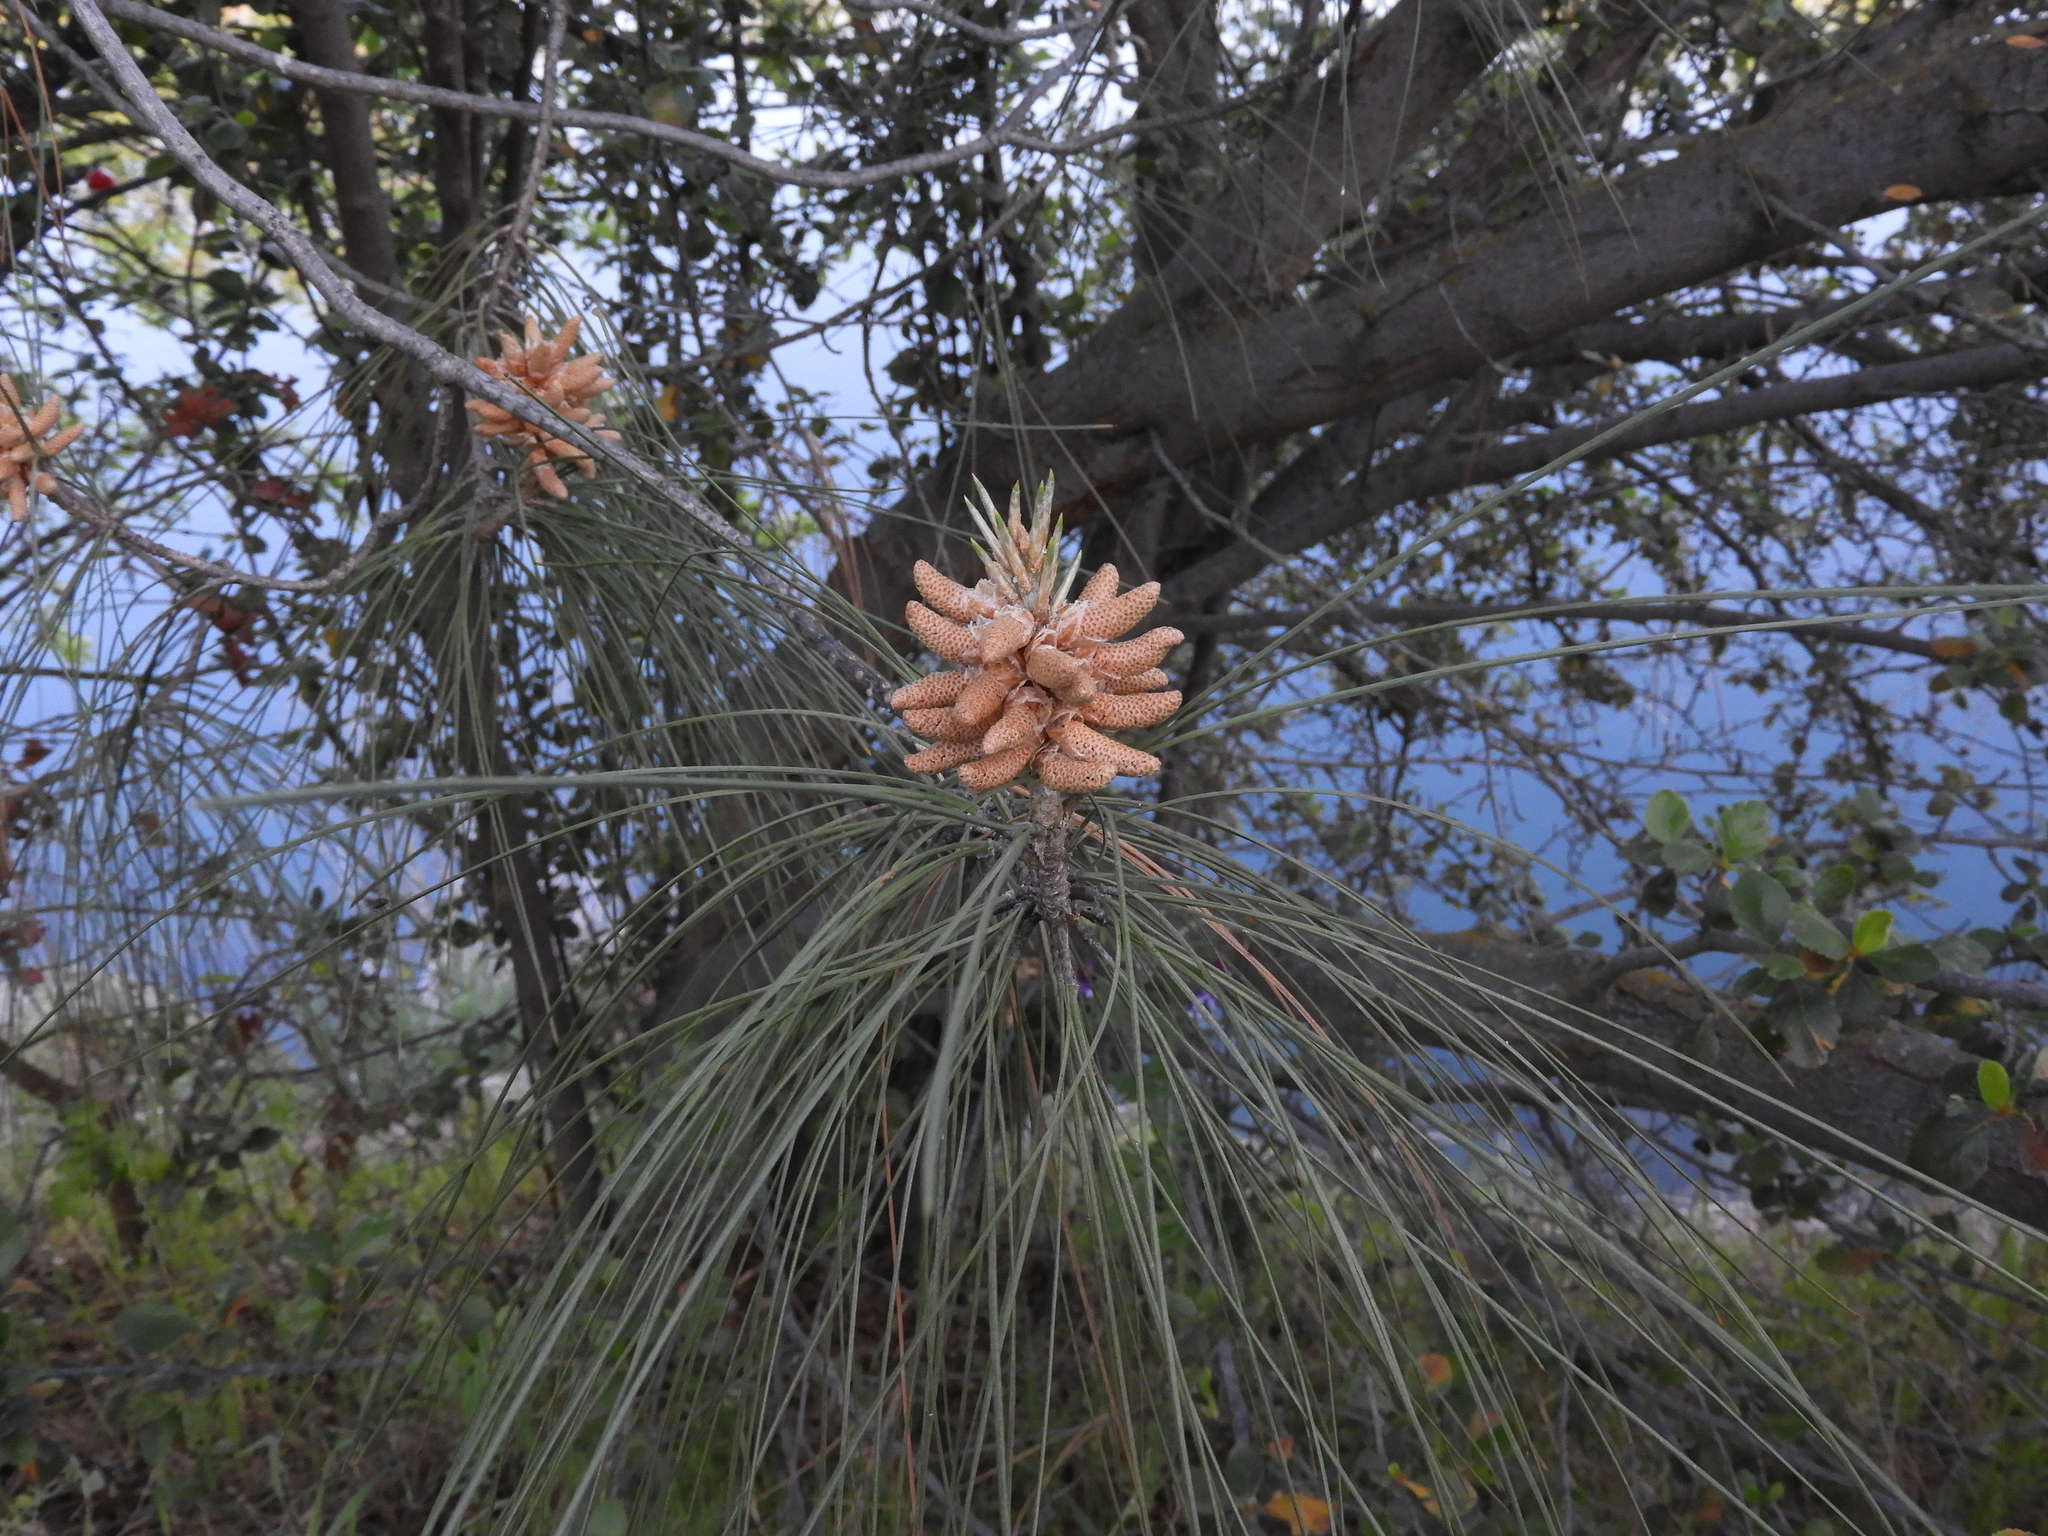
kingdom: Plantae
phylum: Tracheophyta
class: Pinopsida
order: Pinales
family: Pinaceae
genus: Pinus
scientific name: Pinus sabiniana
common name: Bull pine
